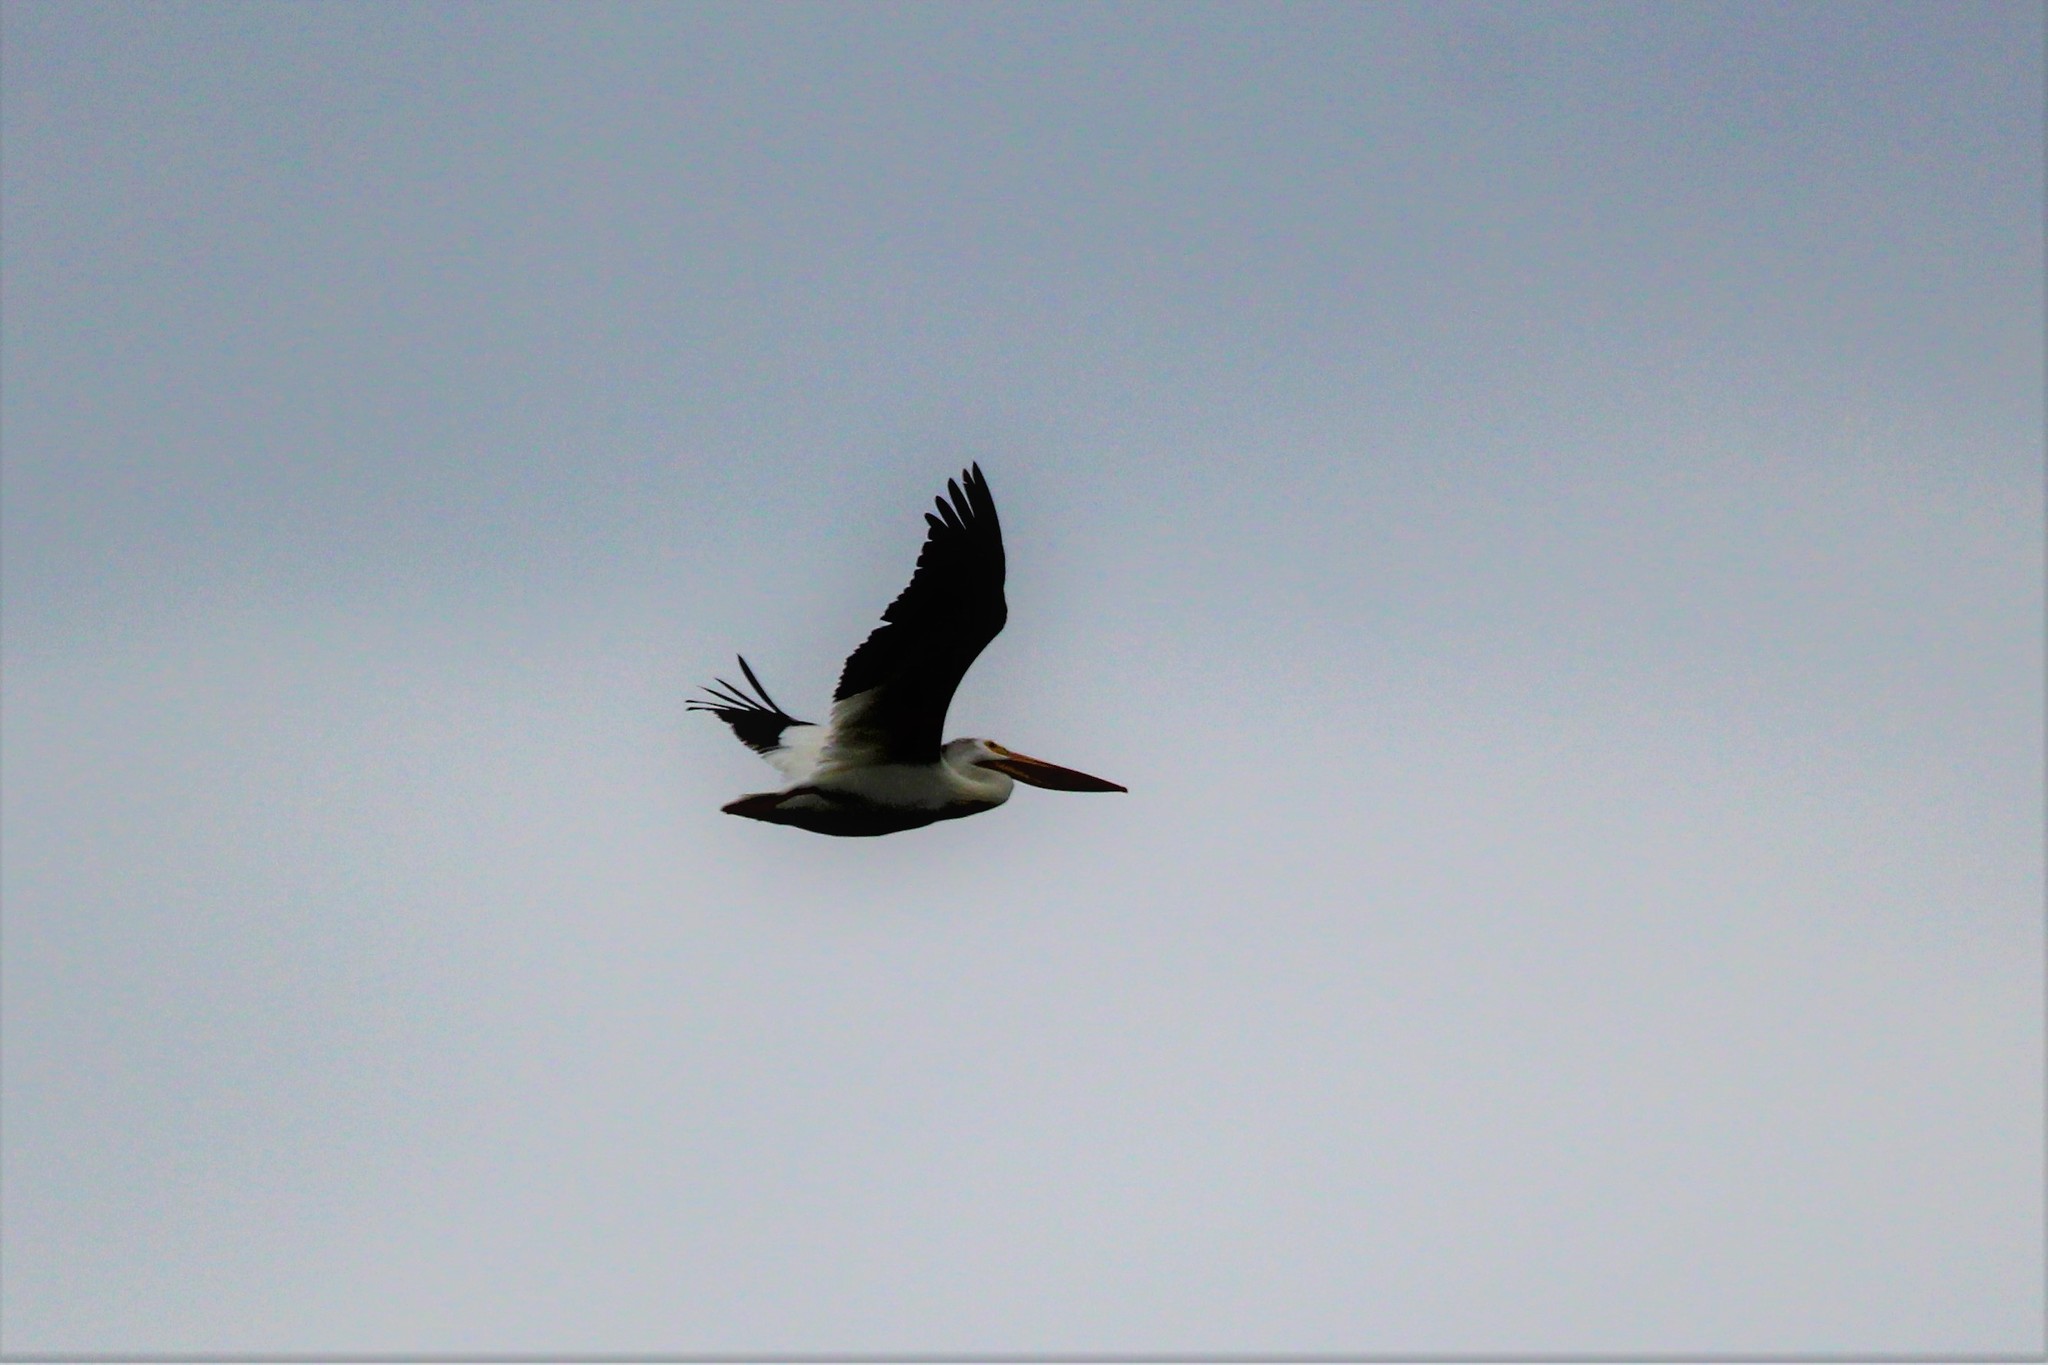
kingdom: Animalia
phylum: Chordata
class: Aves
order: Pelecaniformes
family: Pelecanidae
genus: Pelecanus
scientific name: Pelecanus erythrorhynchos
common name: American white pelican
